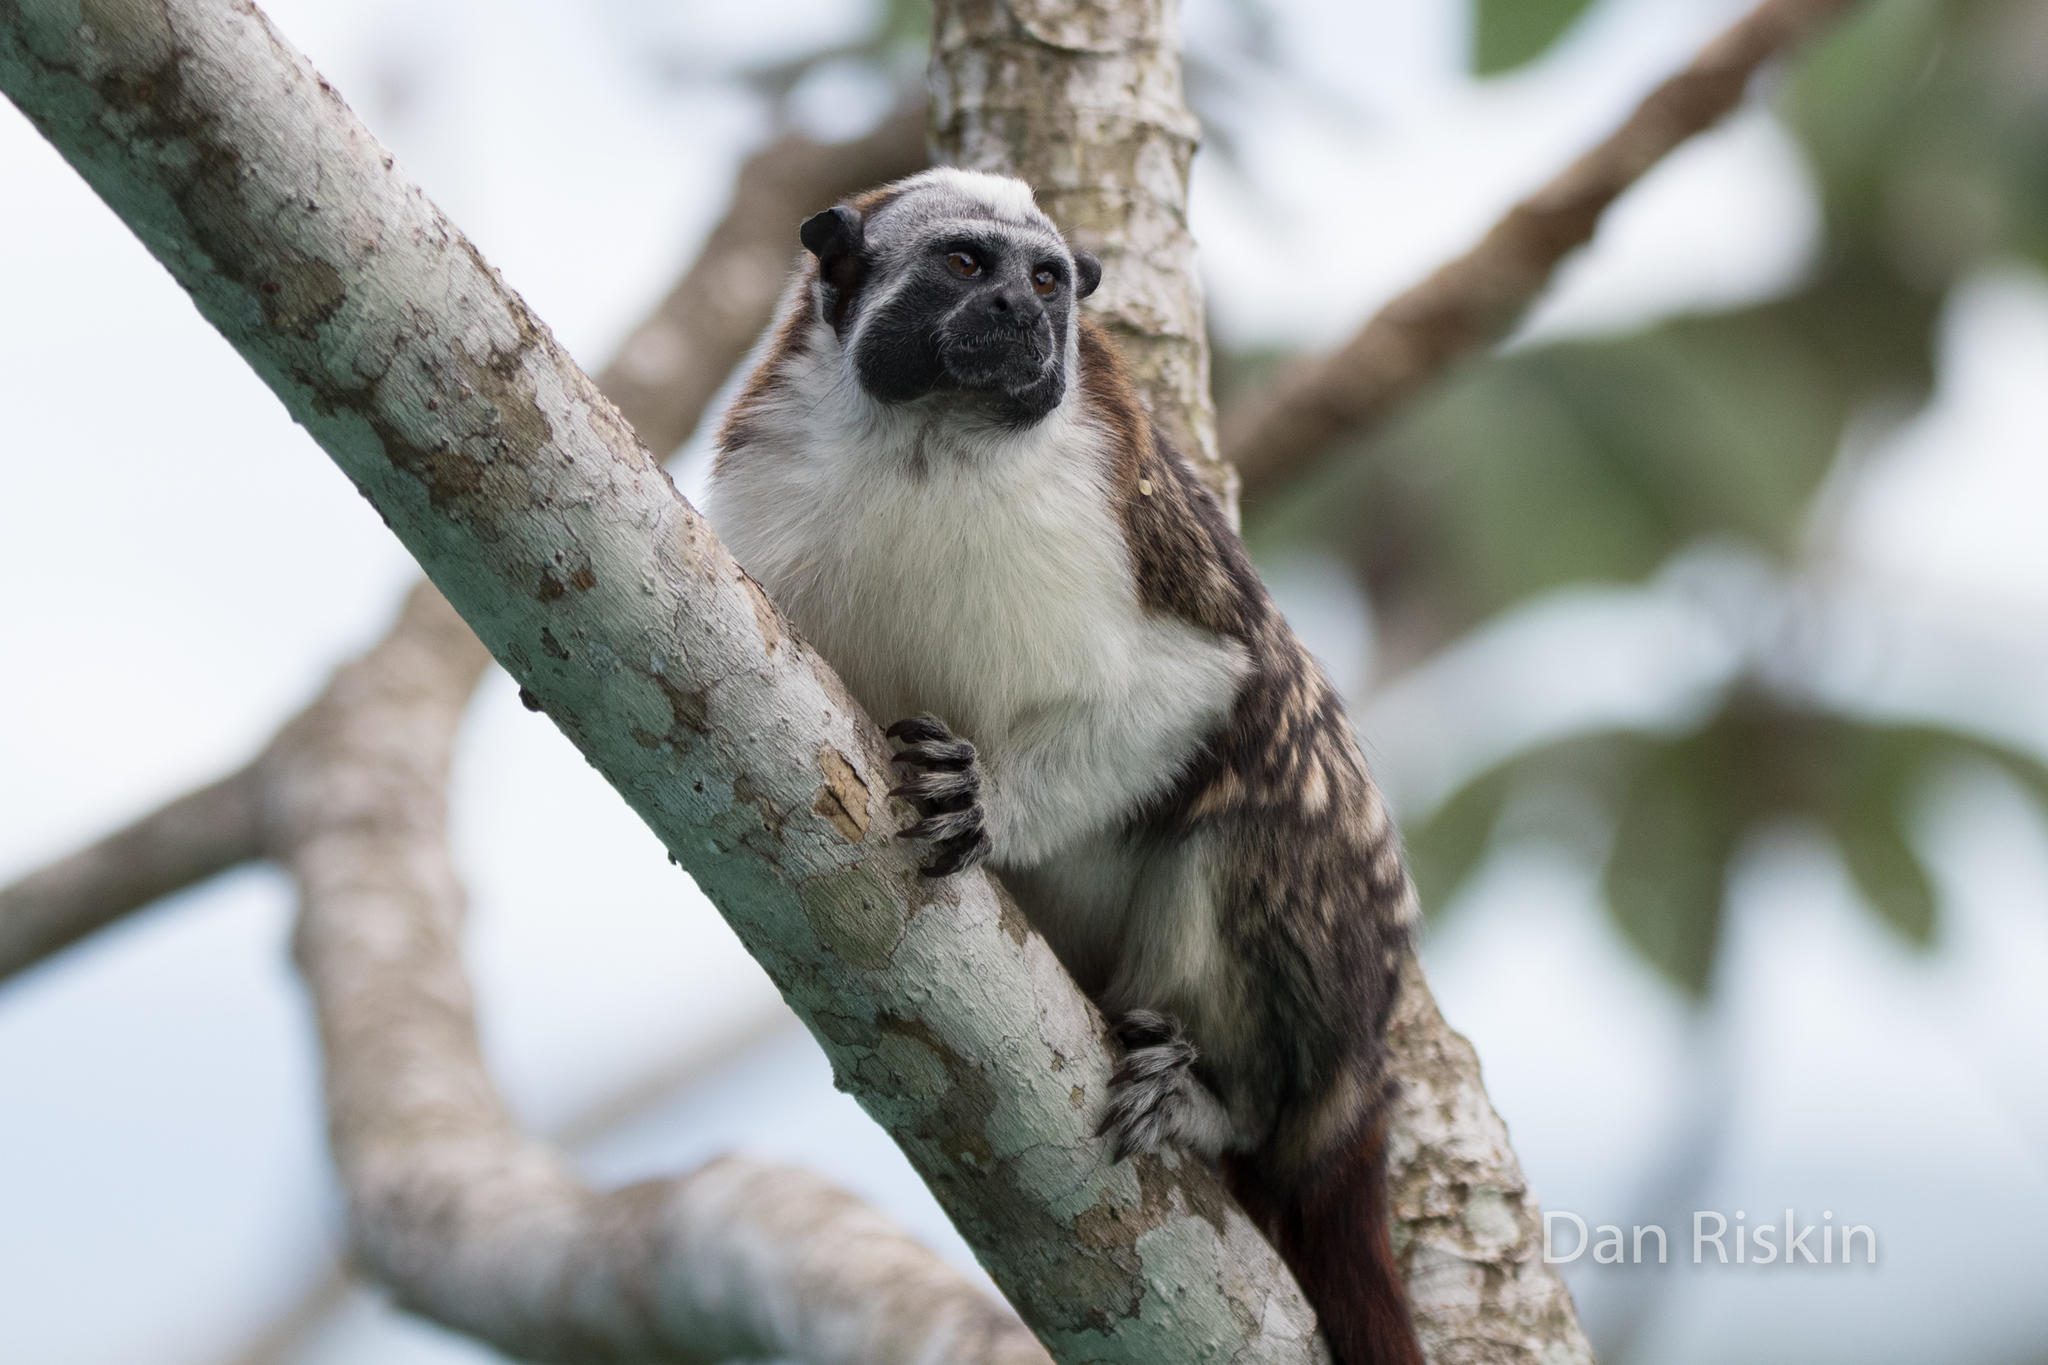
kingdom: Animalia
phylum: Chordata
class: Mammalia
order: Primates
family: Callitrichidae
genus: Saguinus
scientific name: Saguinus geoffroyi
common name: Geoffroy s tamarin
